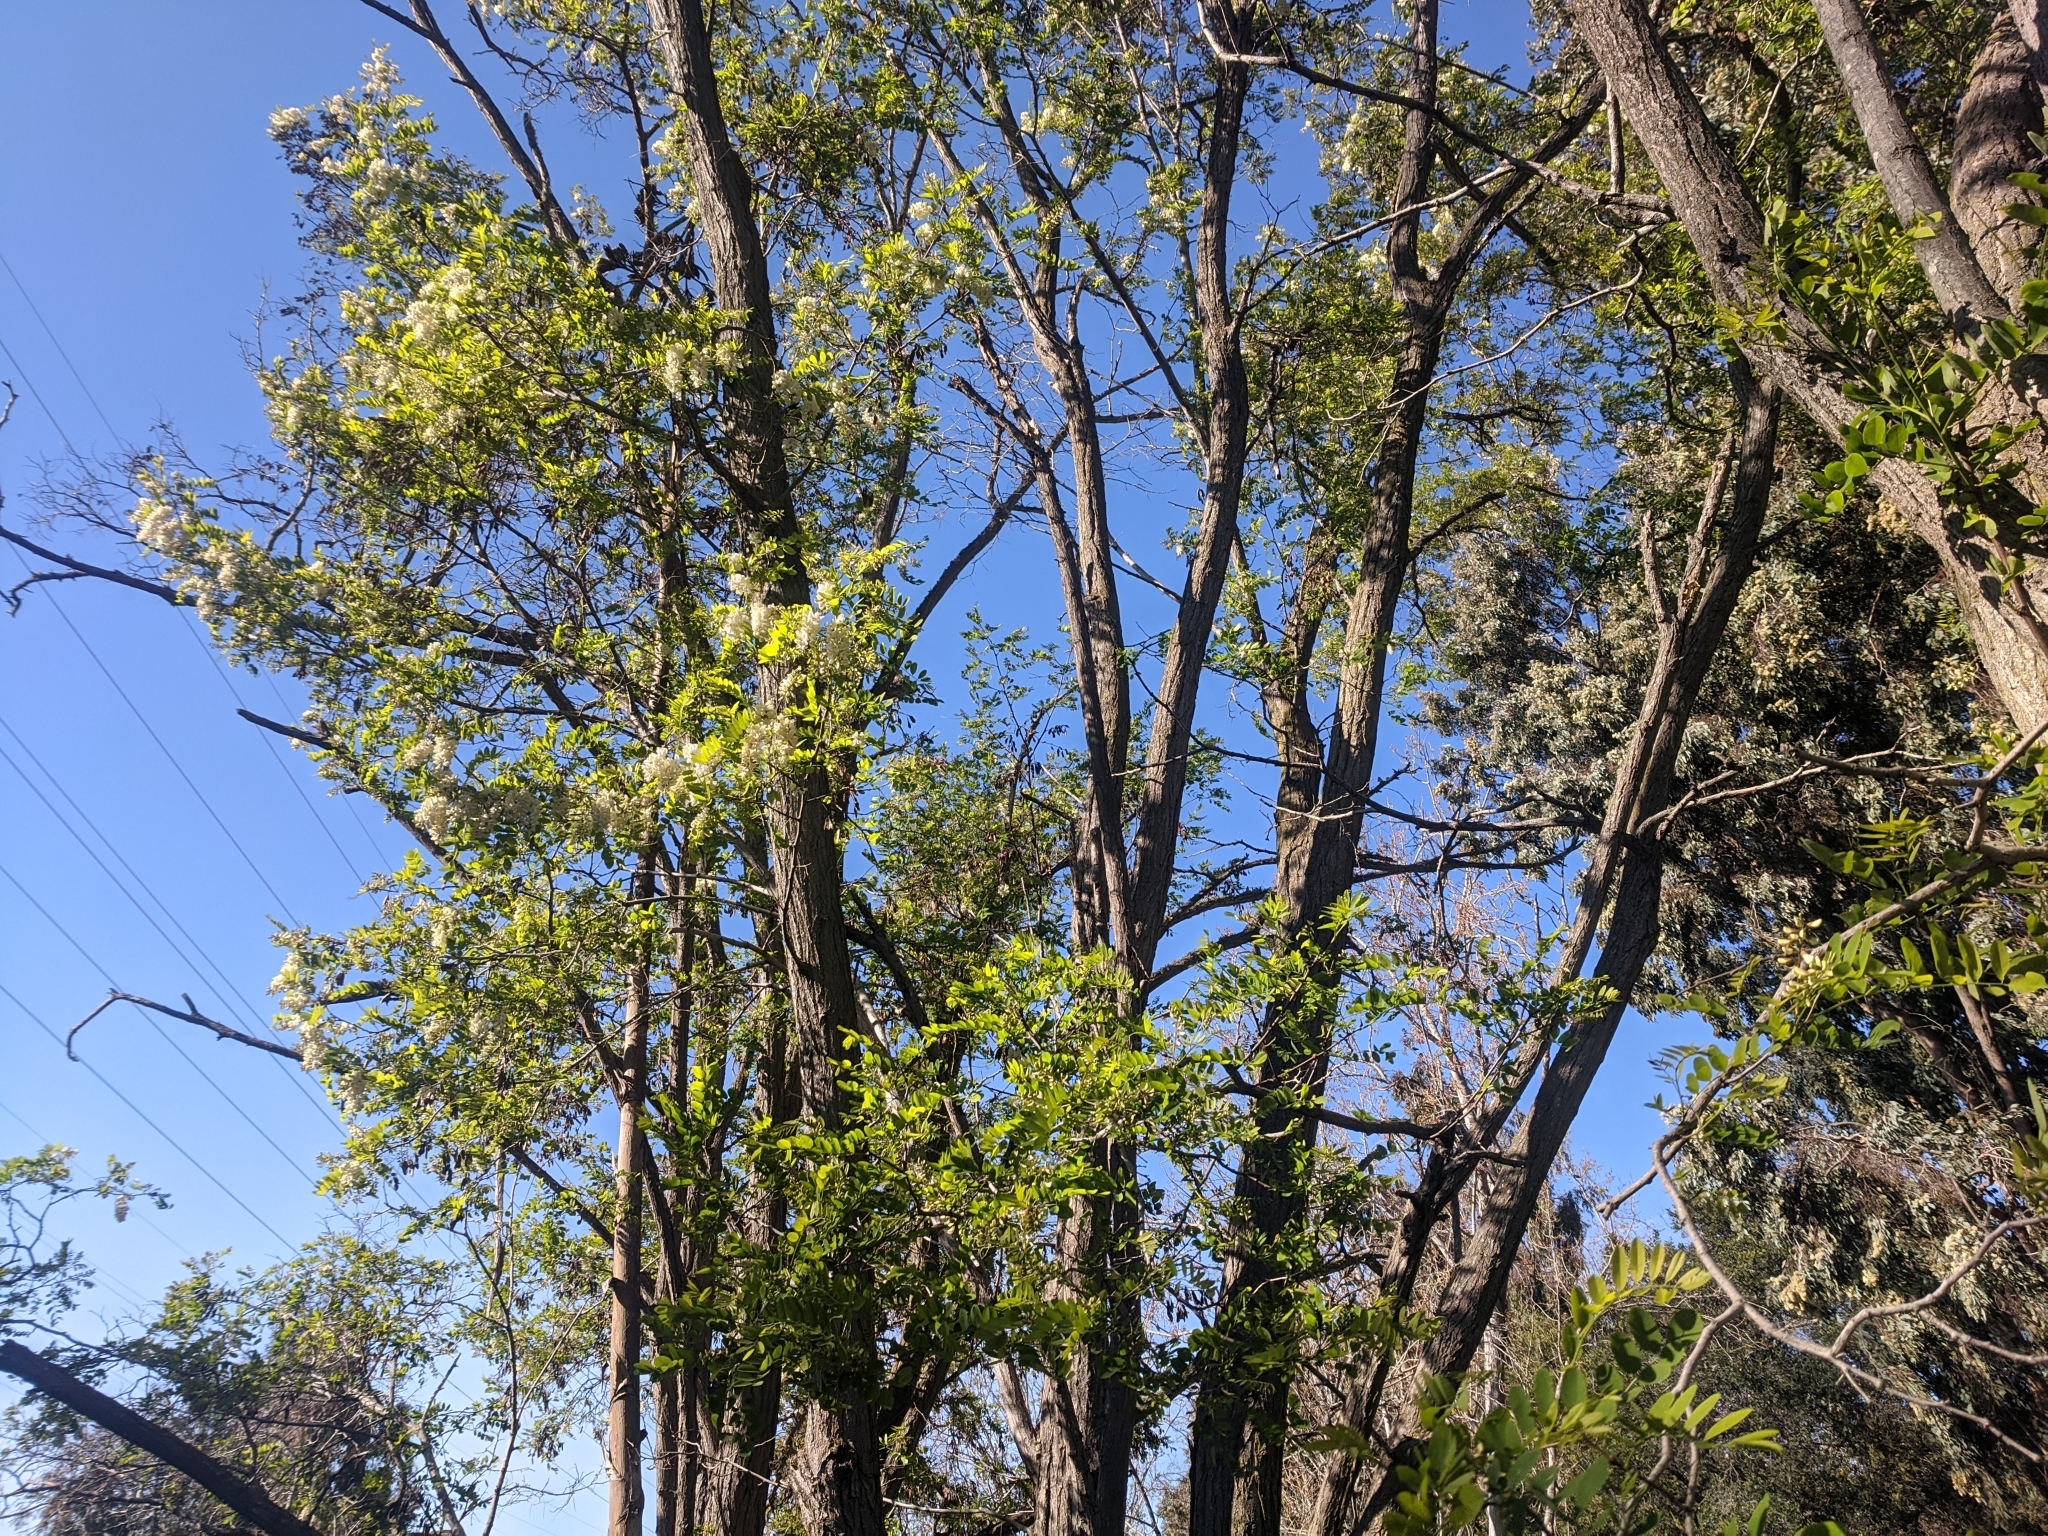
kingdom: Plantae
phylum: Tracheophyta
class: Magnoliopsida
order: Fabales
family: Fabaceae
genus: Robinia
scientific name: Robinia pseudoacacia
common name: Black locust
